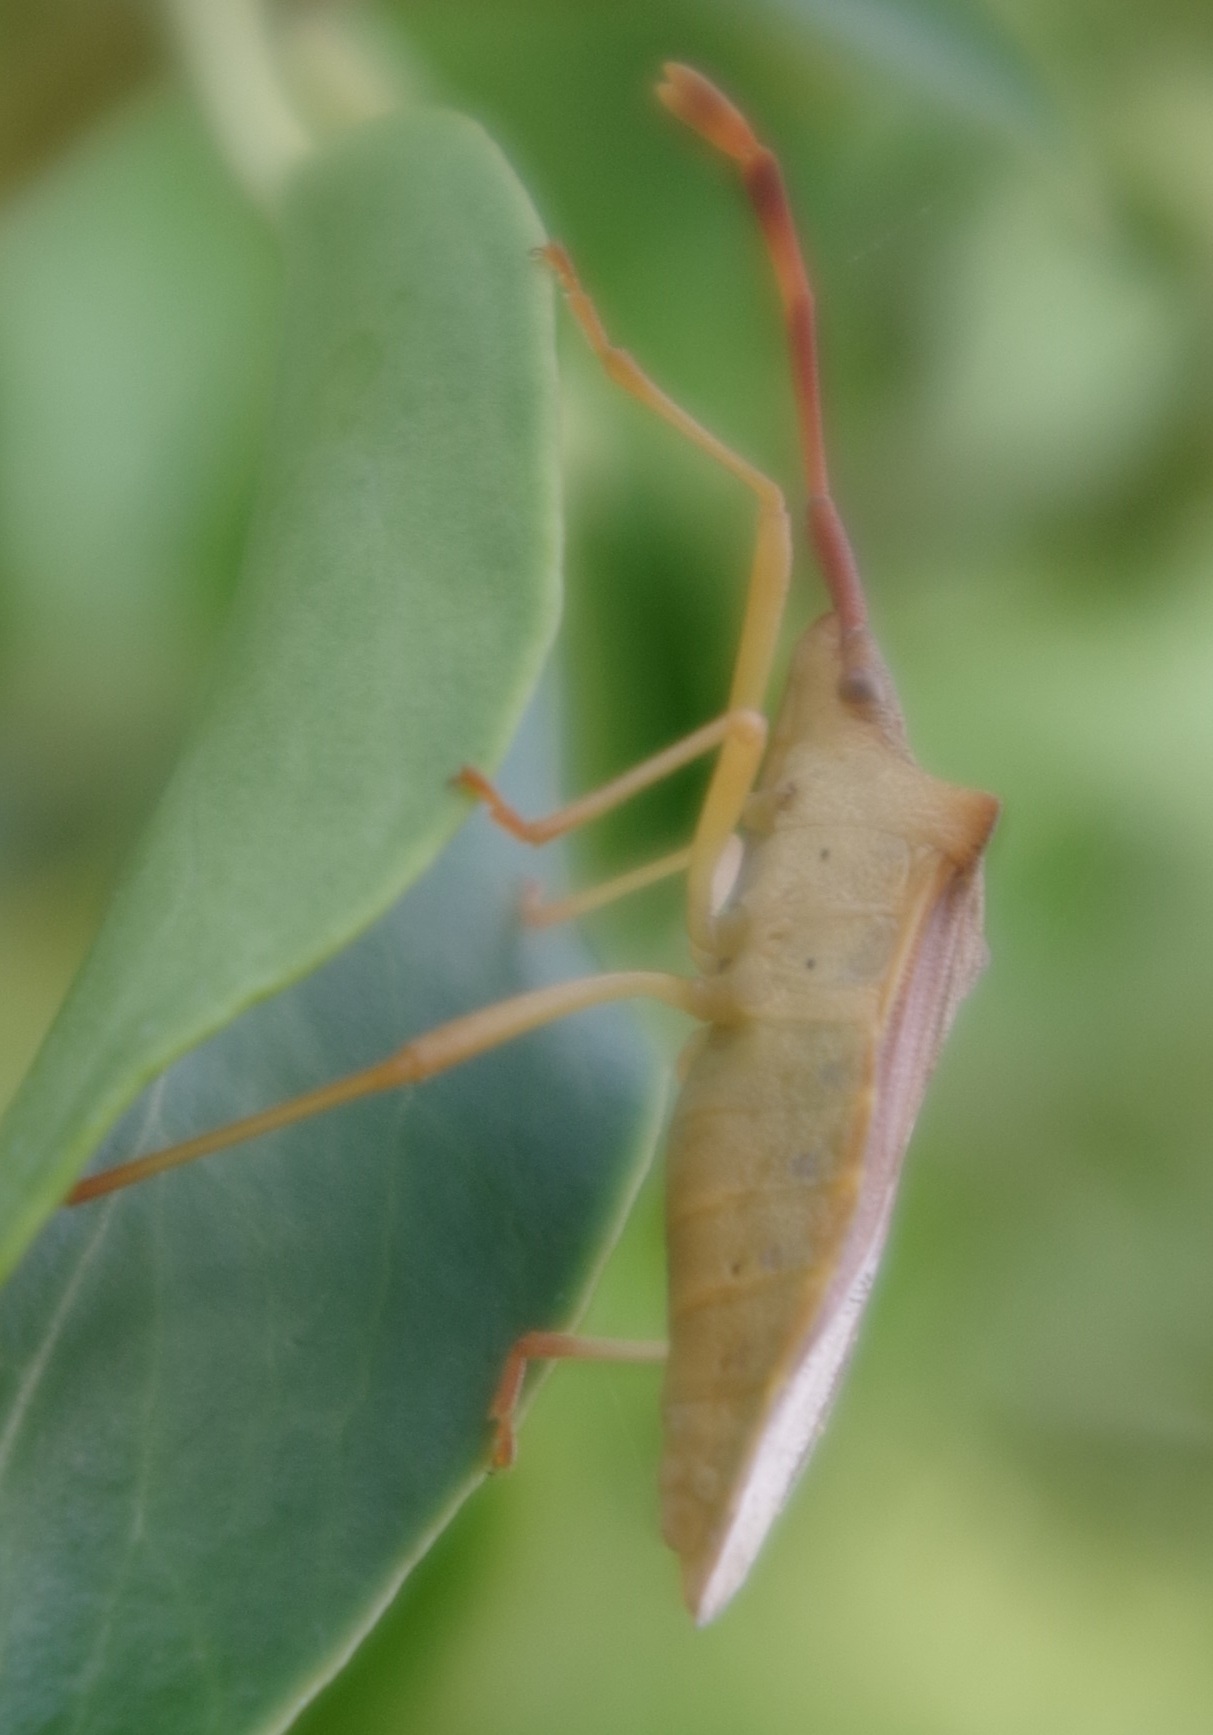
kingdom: Animalia
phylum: Arthropoda
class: Insecta
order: Hemiptera
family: Coreidae
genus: Gonocerus
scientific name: Gonocerus acuteangulatus
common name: Box bug
